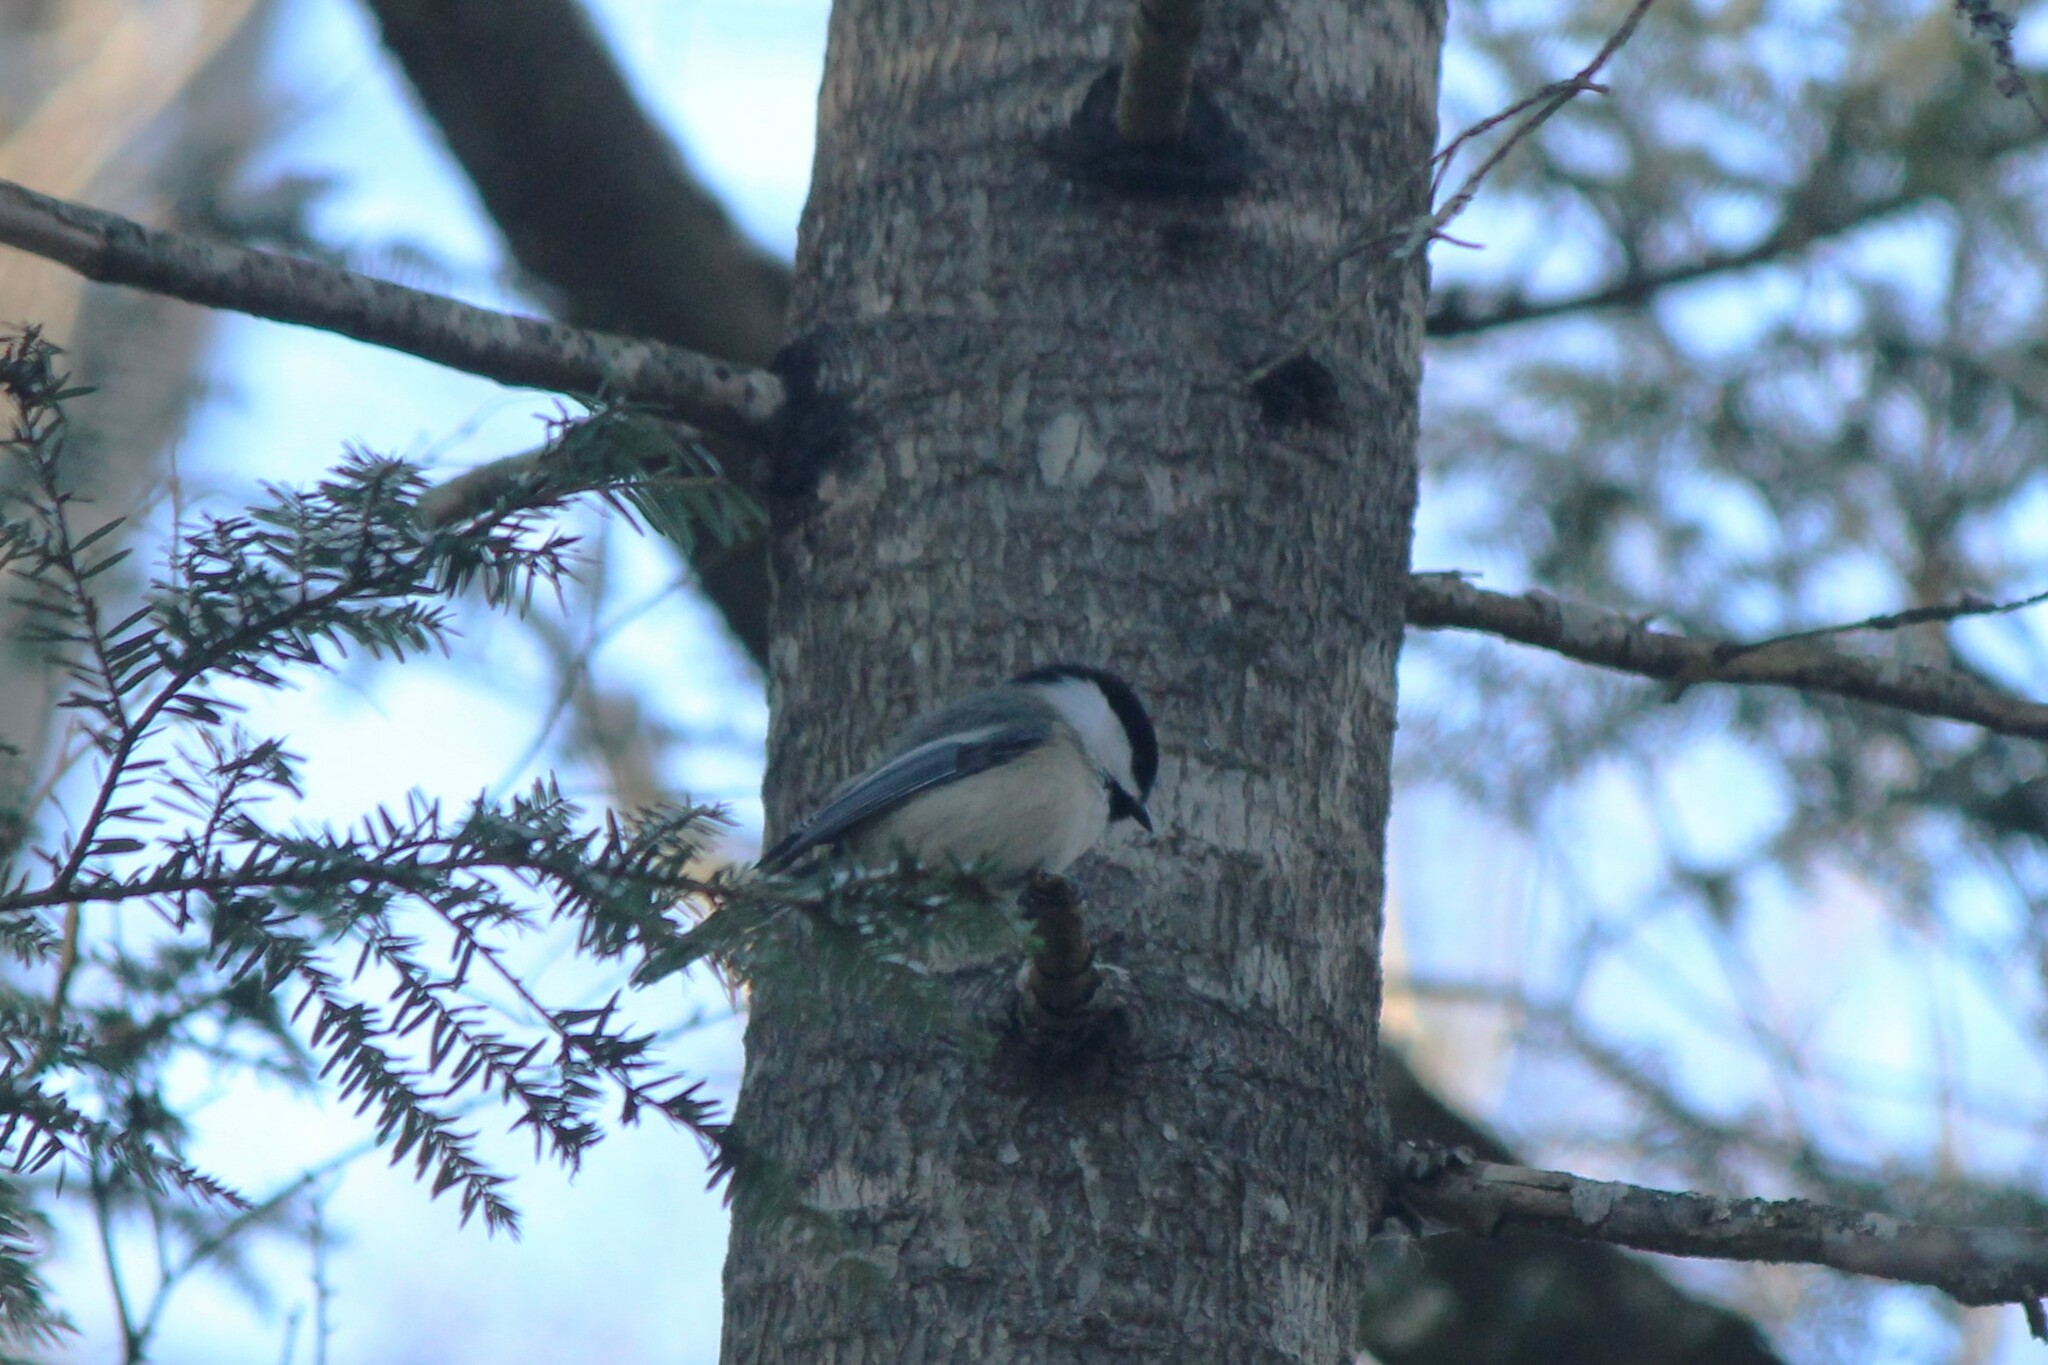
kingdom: Animalia
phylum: Chordata
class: Aves
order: Passeriformes
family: Paridae
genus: Poecile
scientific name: Poecile atricapillus
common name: Black-capped chickadee
